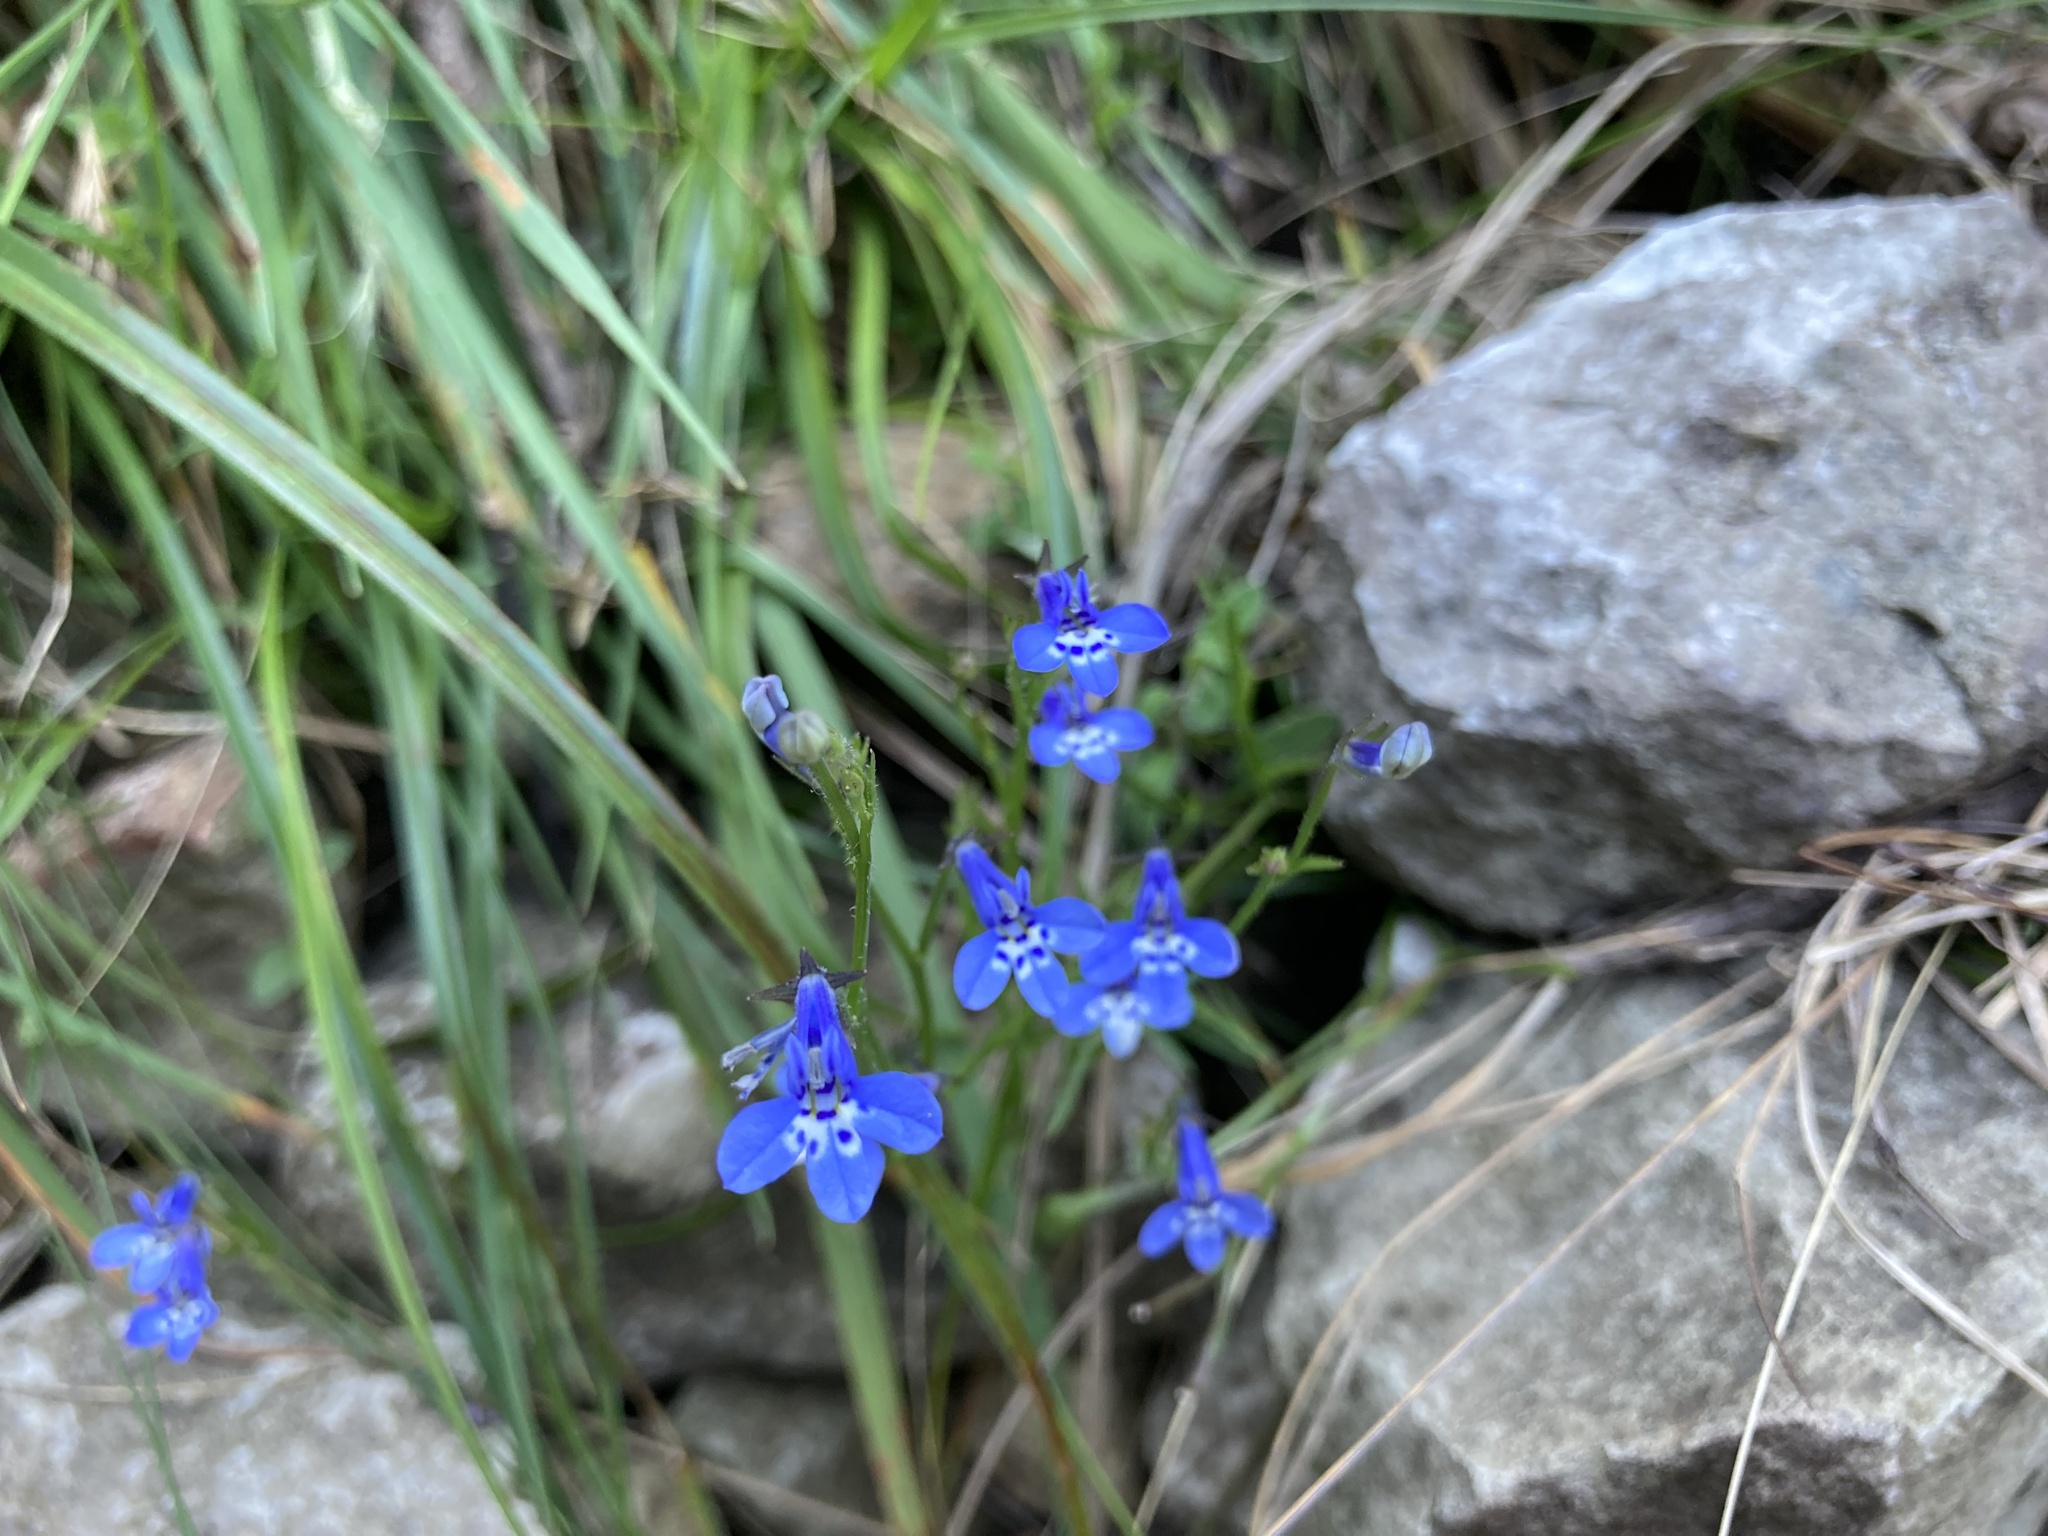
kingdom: Plantae
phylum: Tracheophyta
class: Magnoliopsida
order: Asterales
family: Campanulaceae
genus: Lobelia
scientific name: Lobelia flaccida
